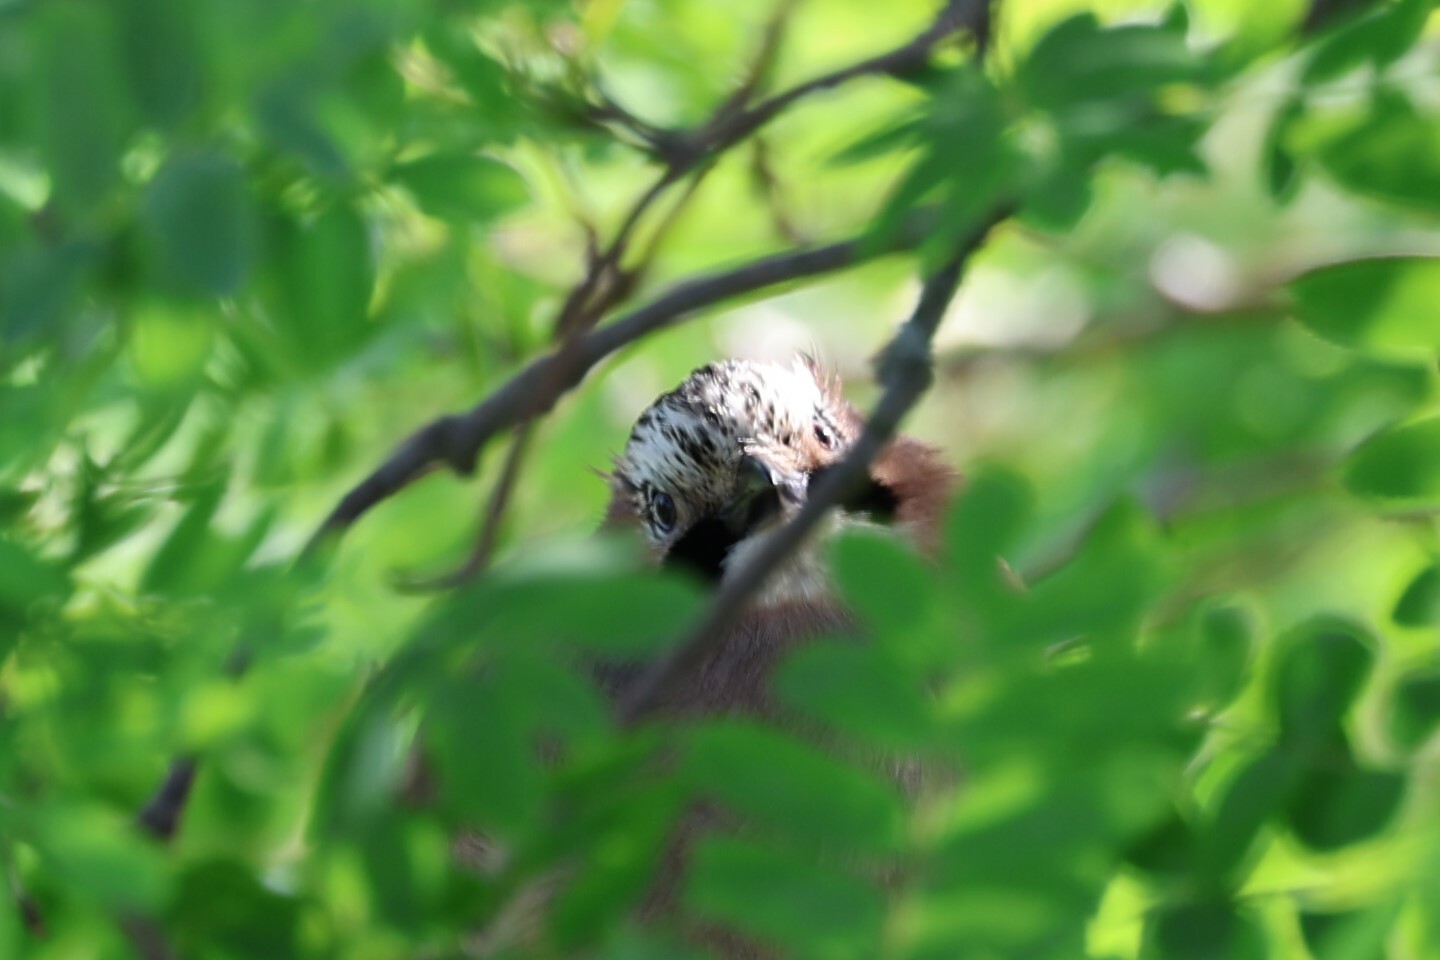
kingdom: Animalia
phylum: Chordata
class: Aves
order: Passeriformes
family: Corvidae
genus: Garrulus
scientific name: Garrulus glandarius
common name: Eurasian jay
